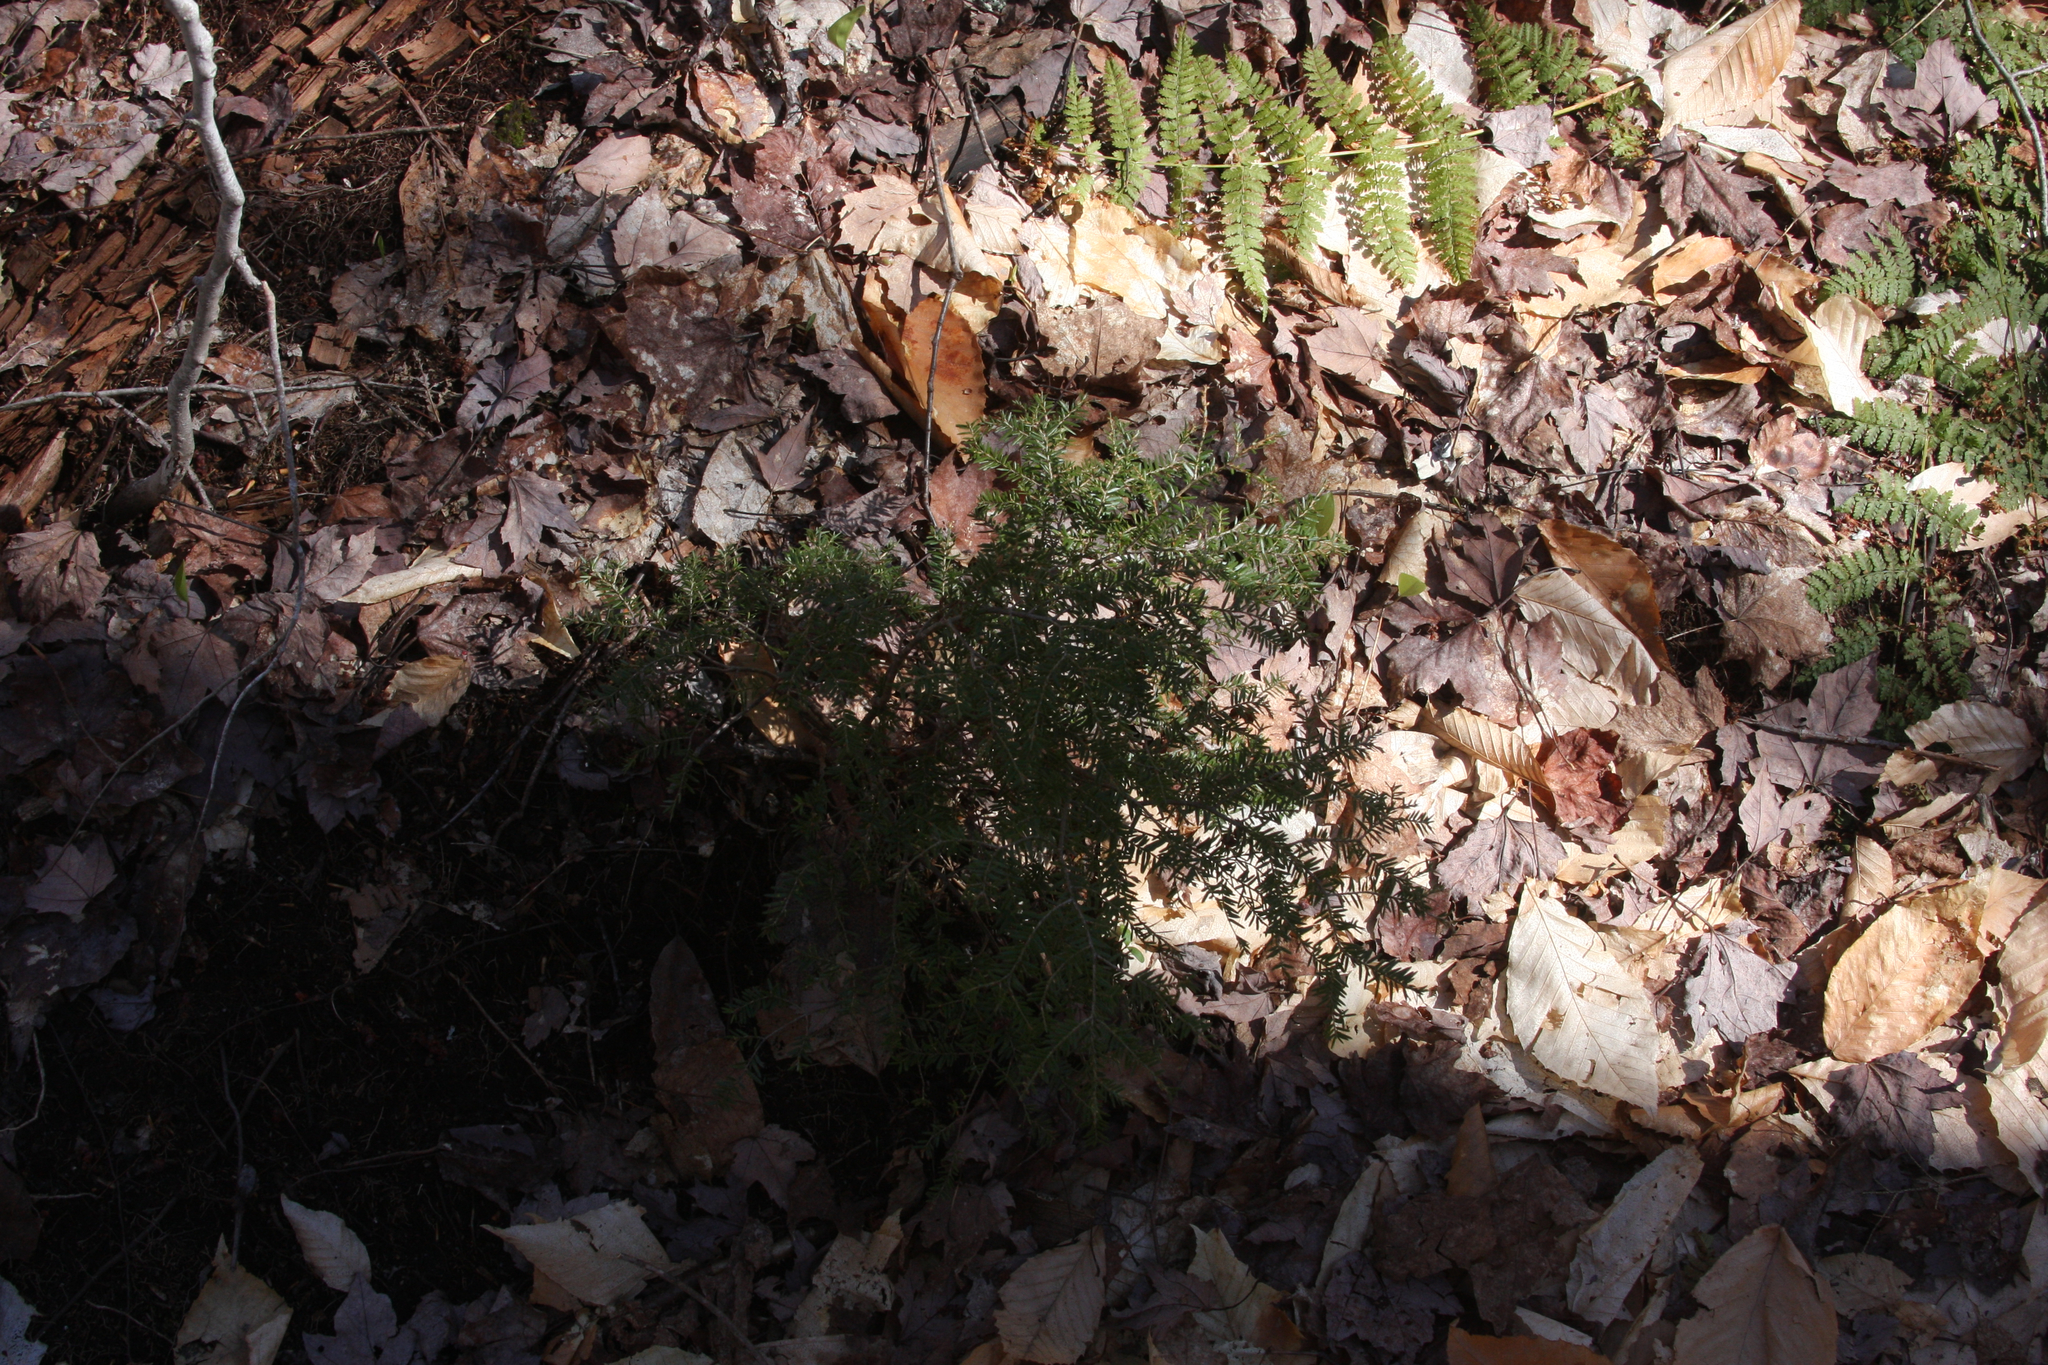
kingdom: Plantae
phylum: Tracheophyta
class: Pinopsida
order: Pinales
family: Pinaceae
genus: Tsuga
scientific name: Tsuga canadensis
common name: Eastern hemlock
